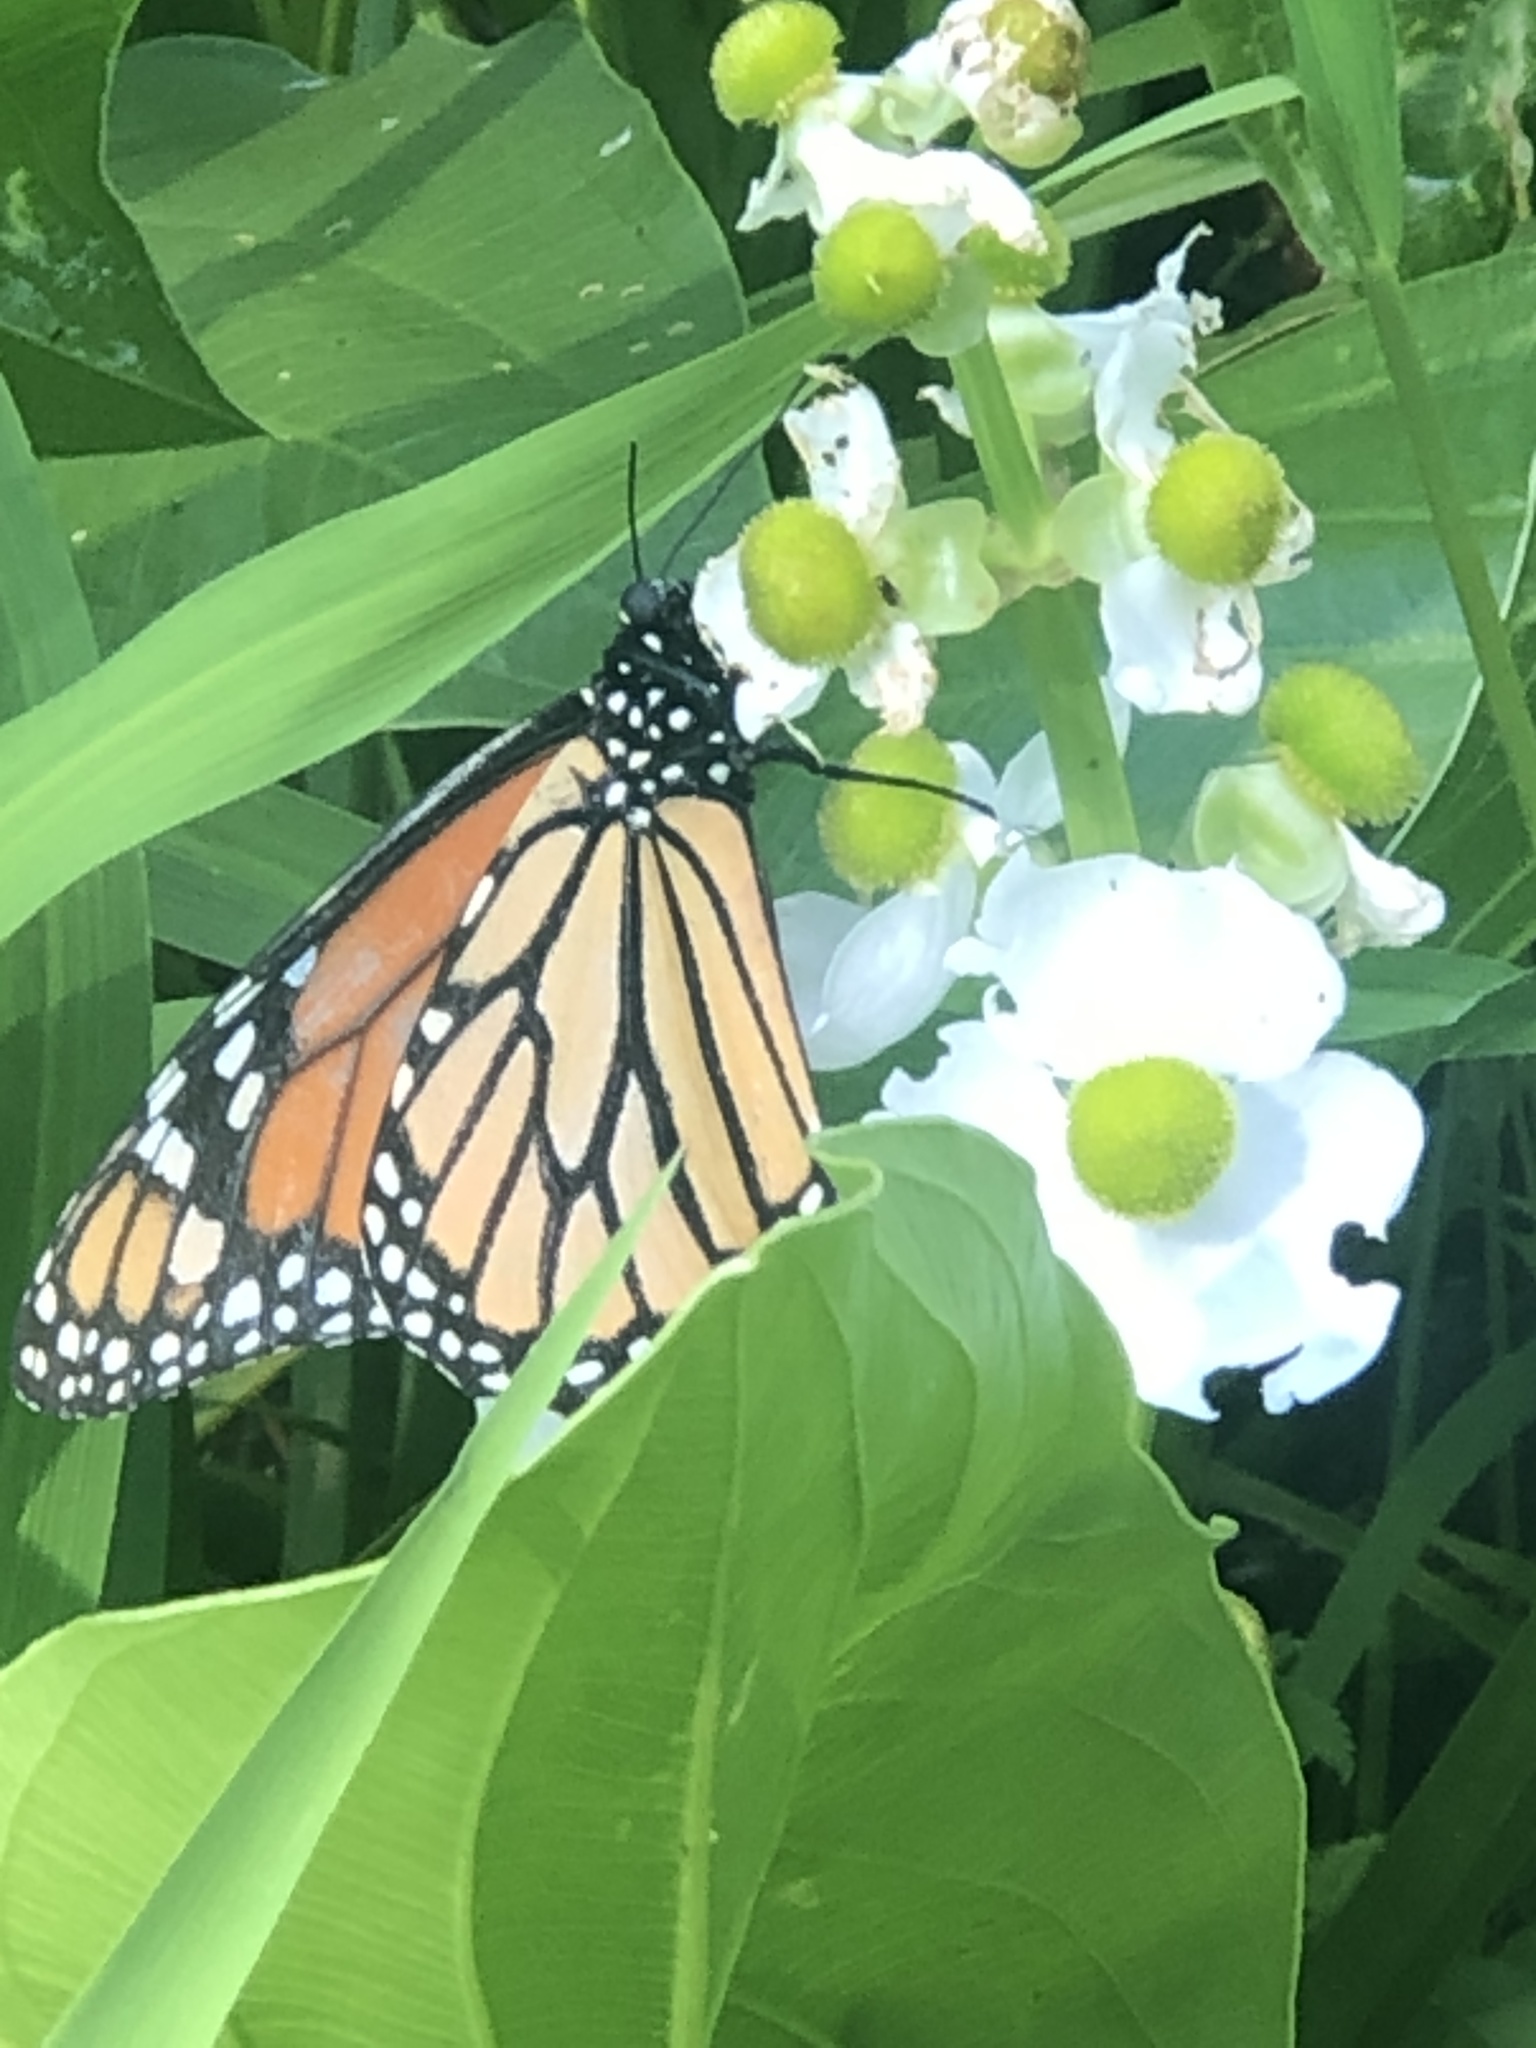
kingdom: Animalia
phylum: Arthropoda
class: Insecta
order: Lepidoptera
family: Nymphalidae
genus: Danaus
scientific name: Danaus plexippus
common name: Monarch
